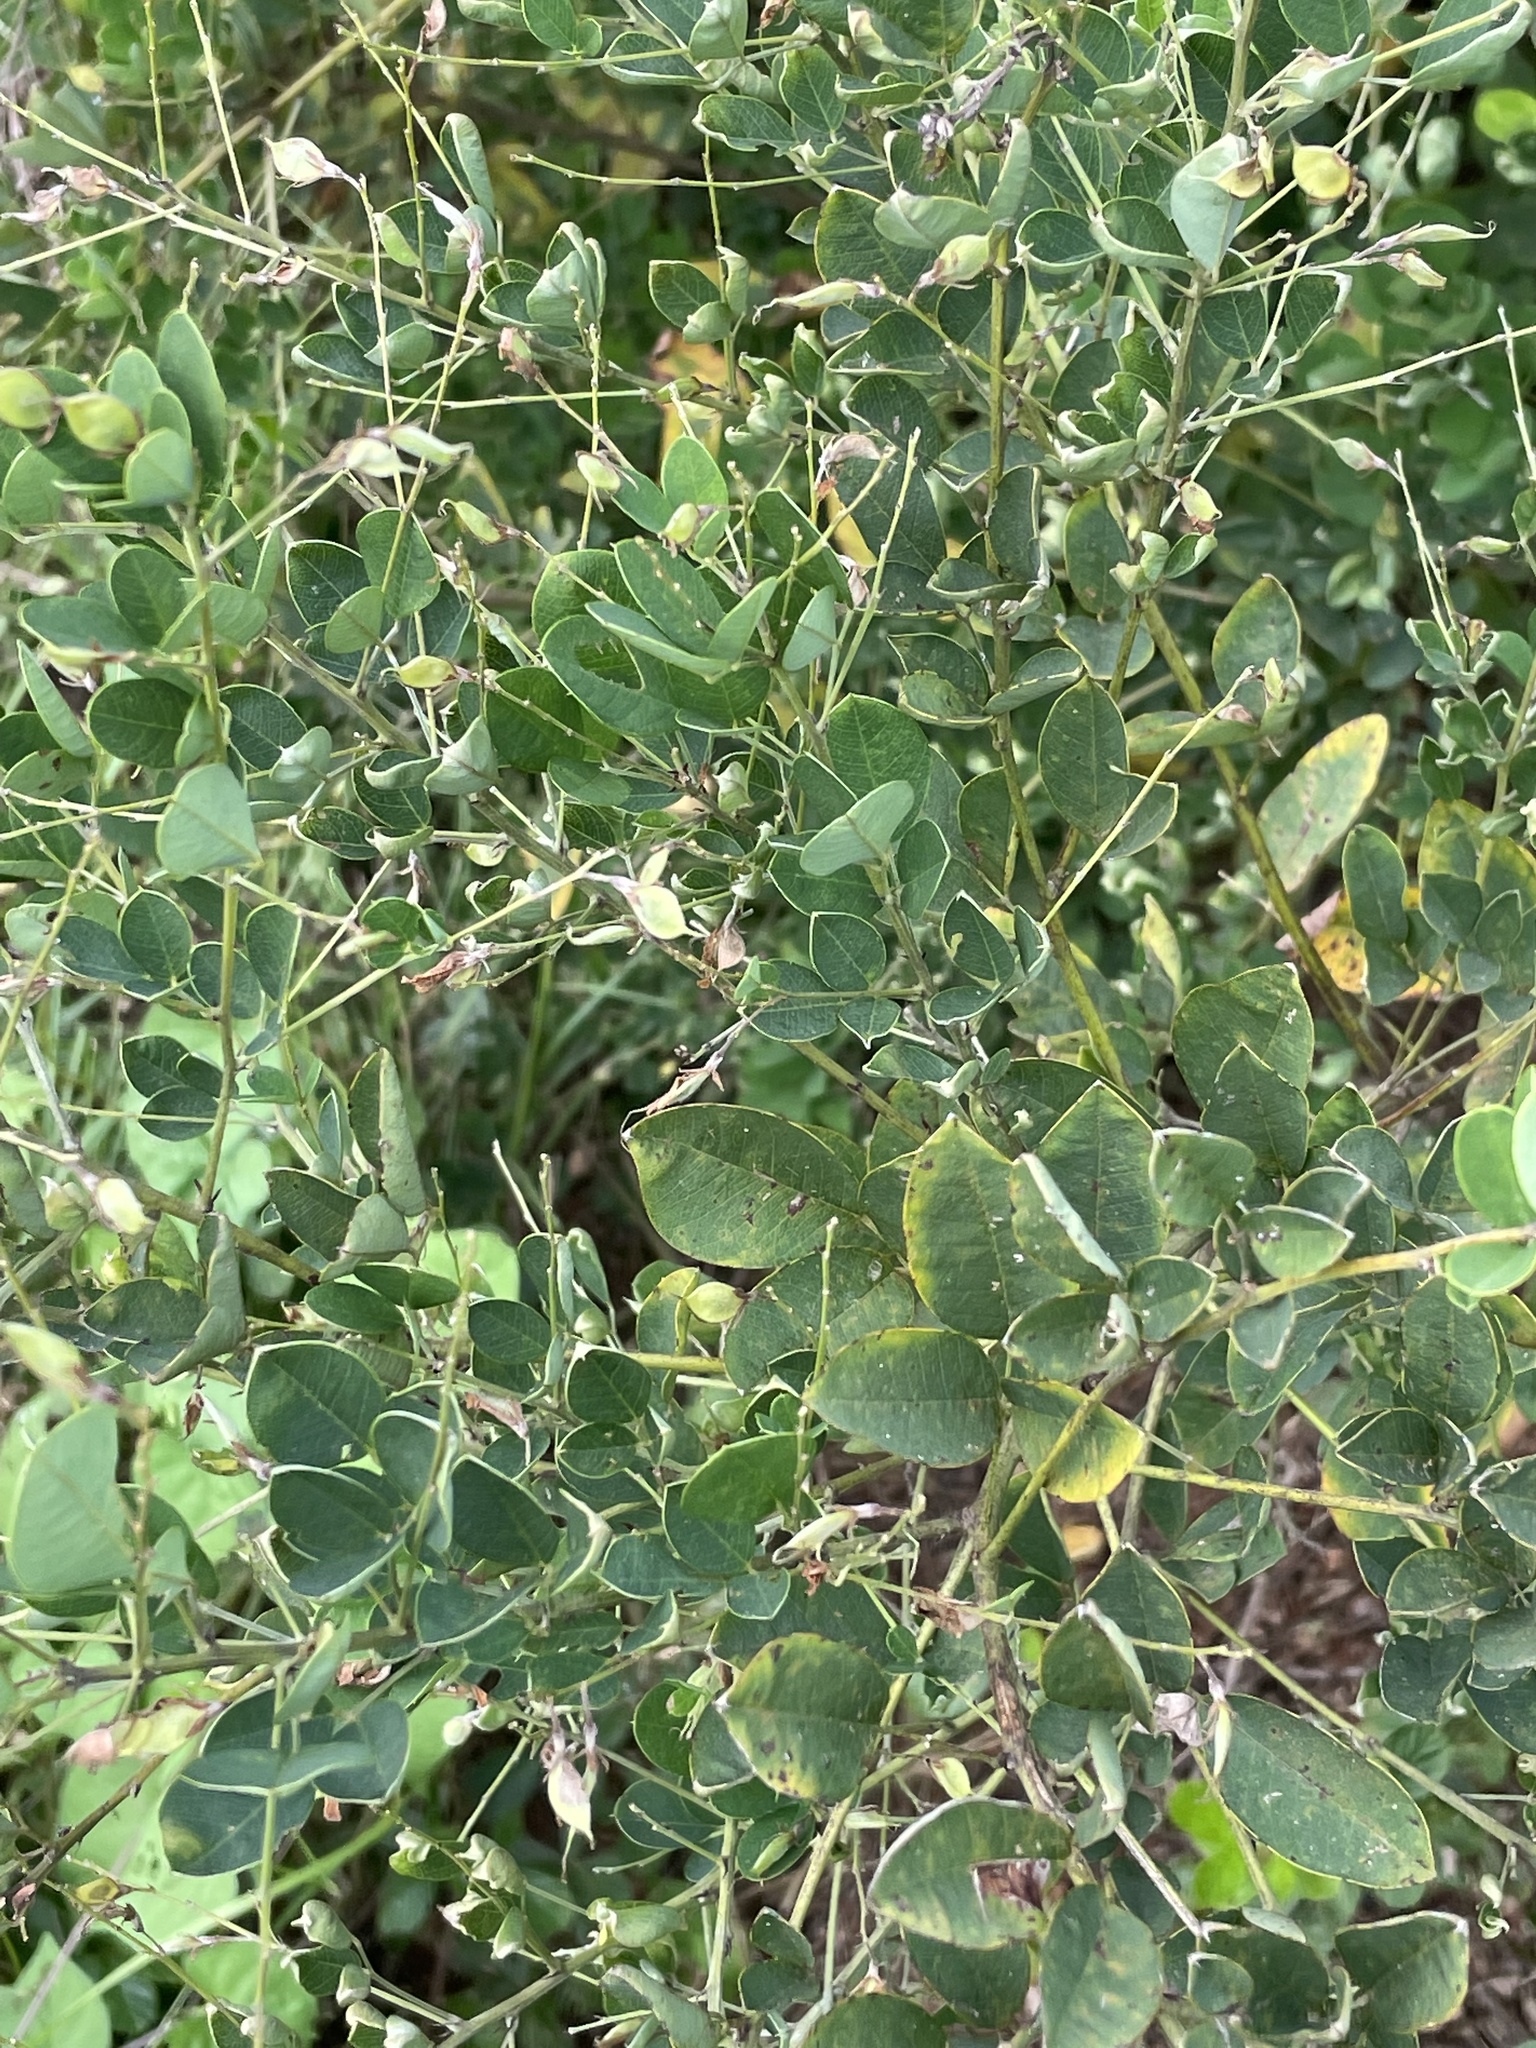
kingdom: Plantae
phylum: Tracheophyta
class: Magnoliopsida
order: Fabales
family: Fabaceae
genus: Lespedeza
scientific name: Lespedeza bicolor
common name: Shrub lespedeza
